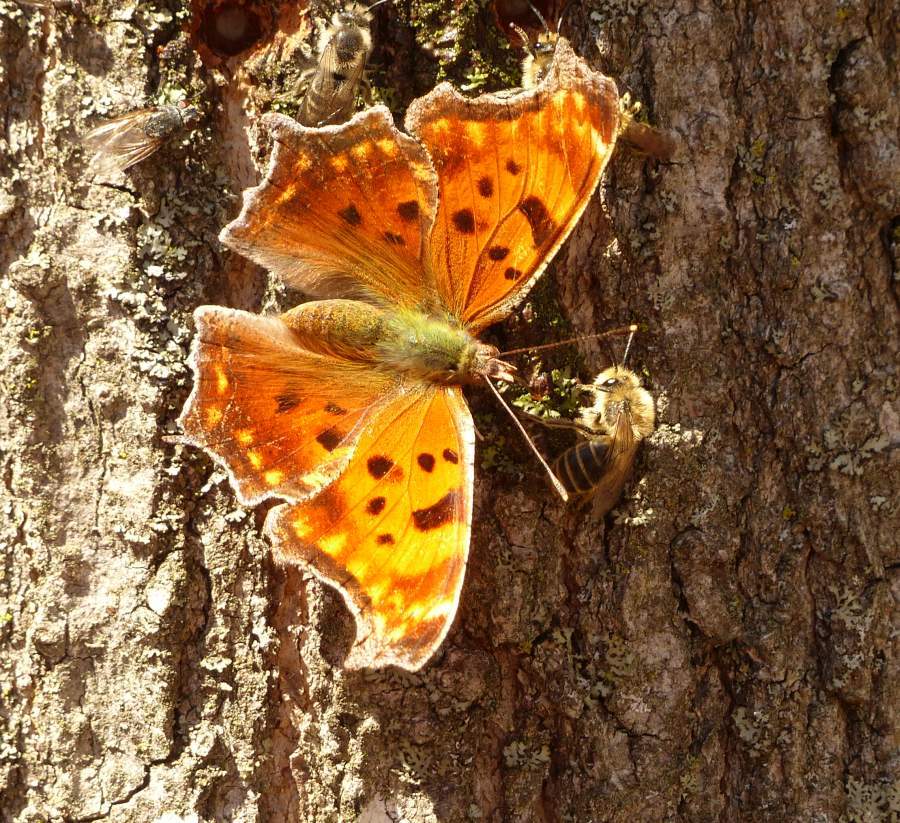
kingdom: Animalia
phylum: Arthropoda
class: Insecta
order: Lepidoptera
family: Nymphalidae
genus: Polygonia
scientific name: Polygonia comma
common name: Eastern comma
